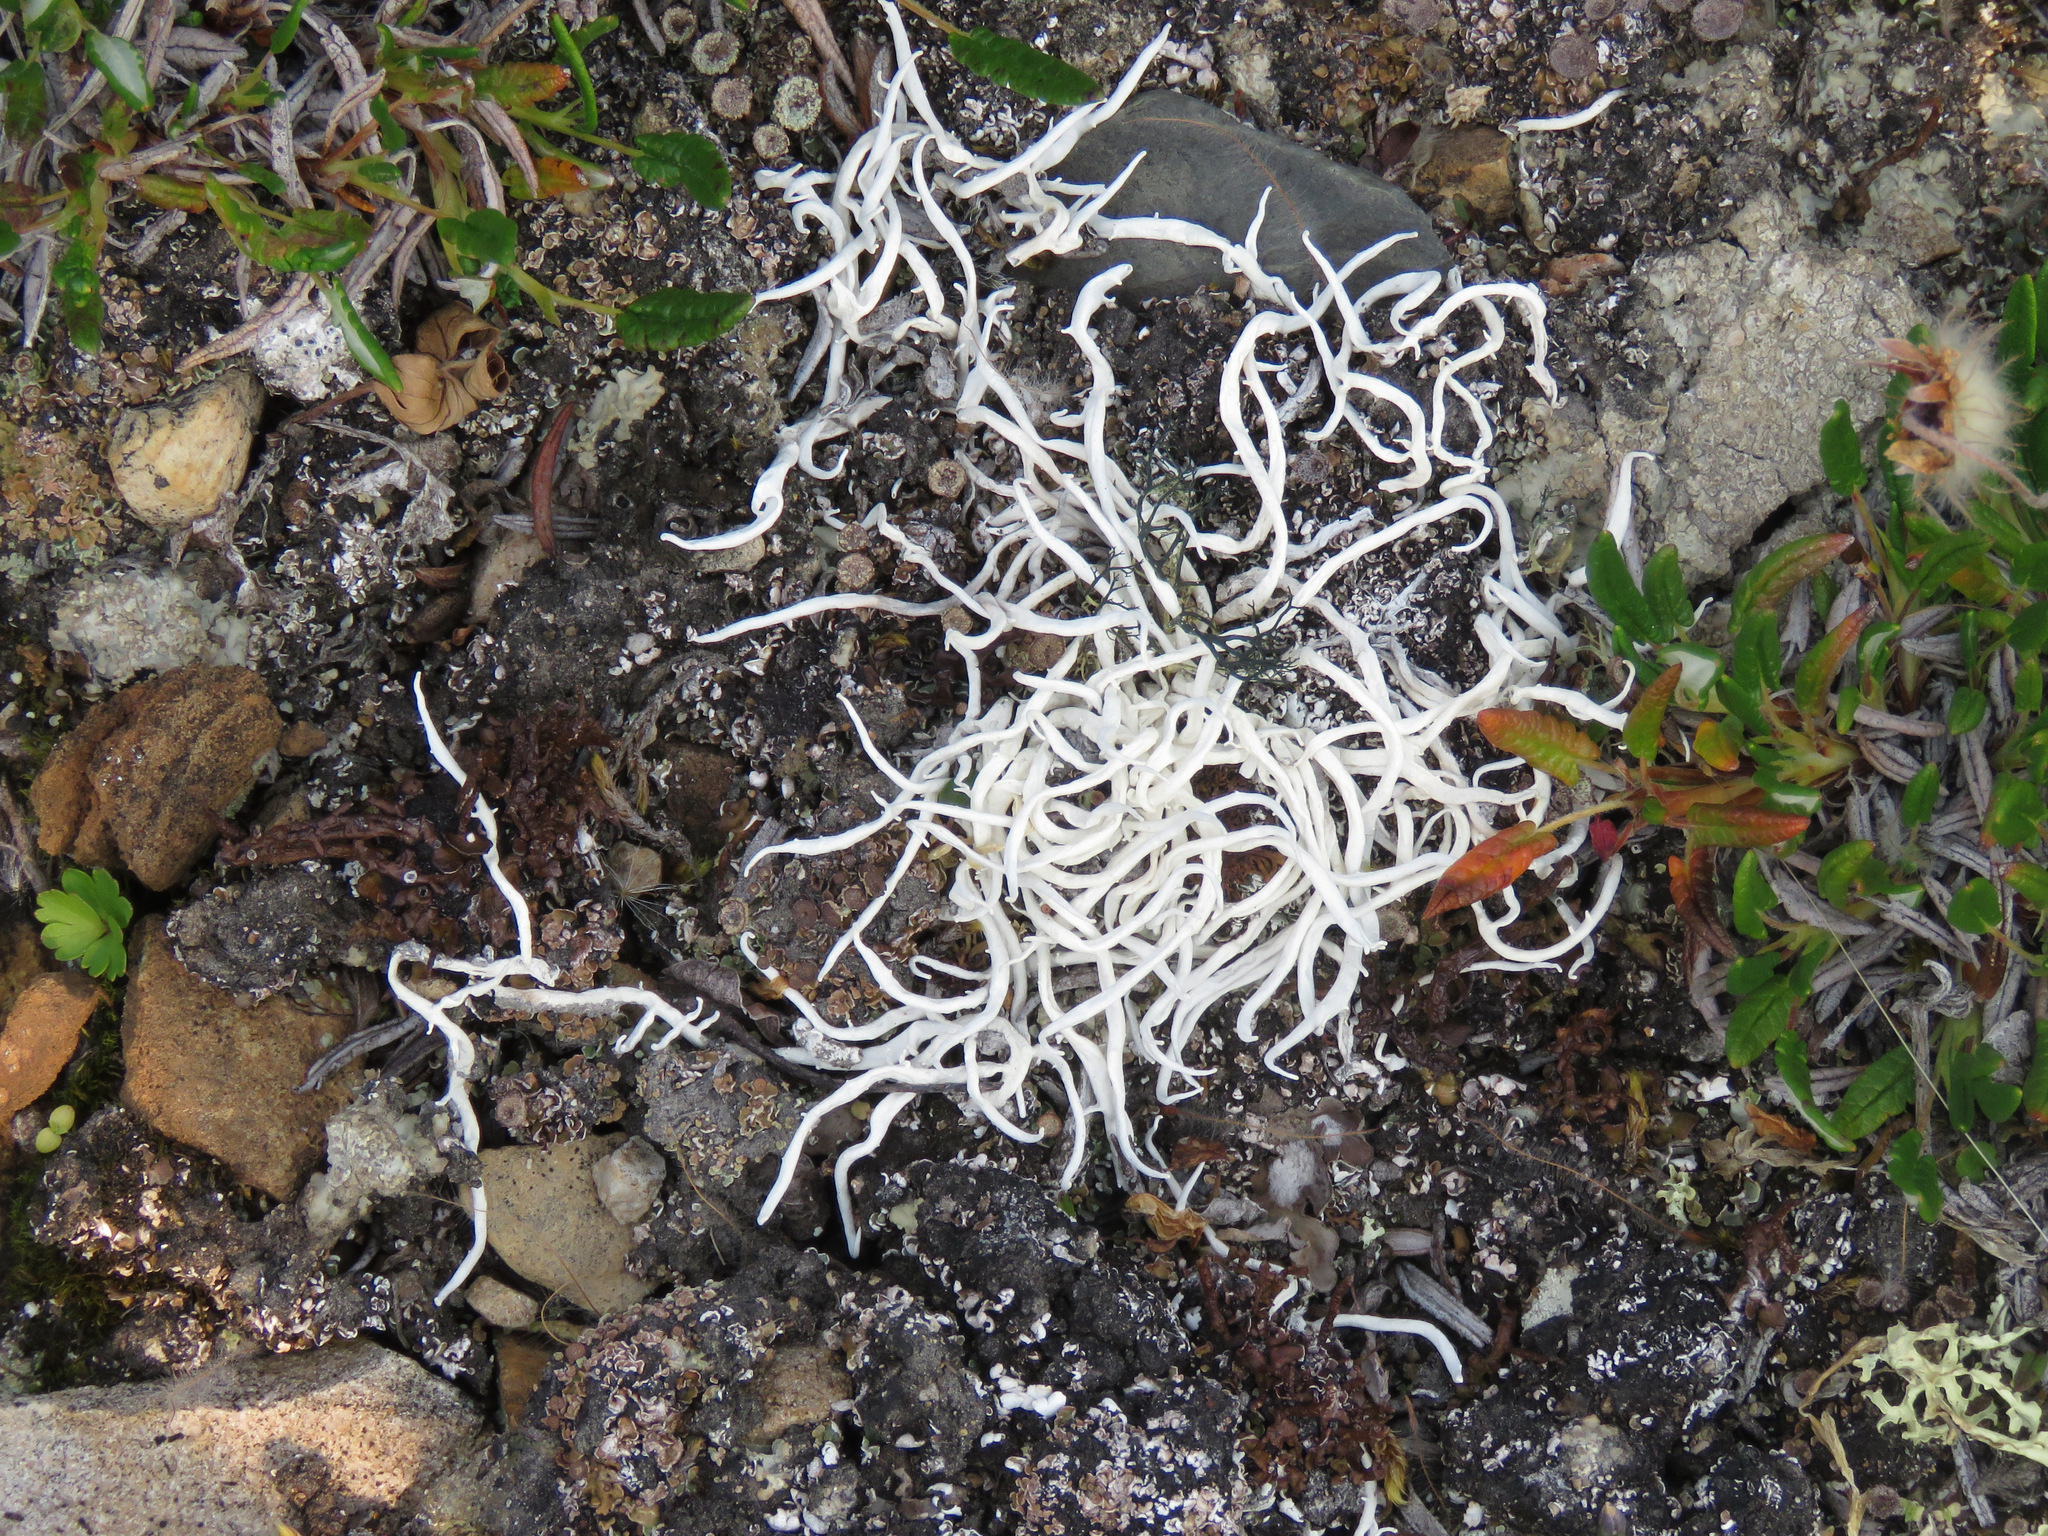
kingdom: Fungi
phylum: Ascomycota
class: Lecanoromycetes
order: Pertusariales
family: Icmadophilaceae
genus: Thamnolia
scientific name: Thamnolia vermicularis
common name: Whiteworm lichen
